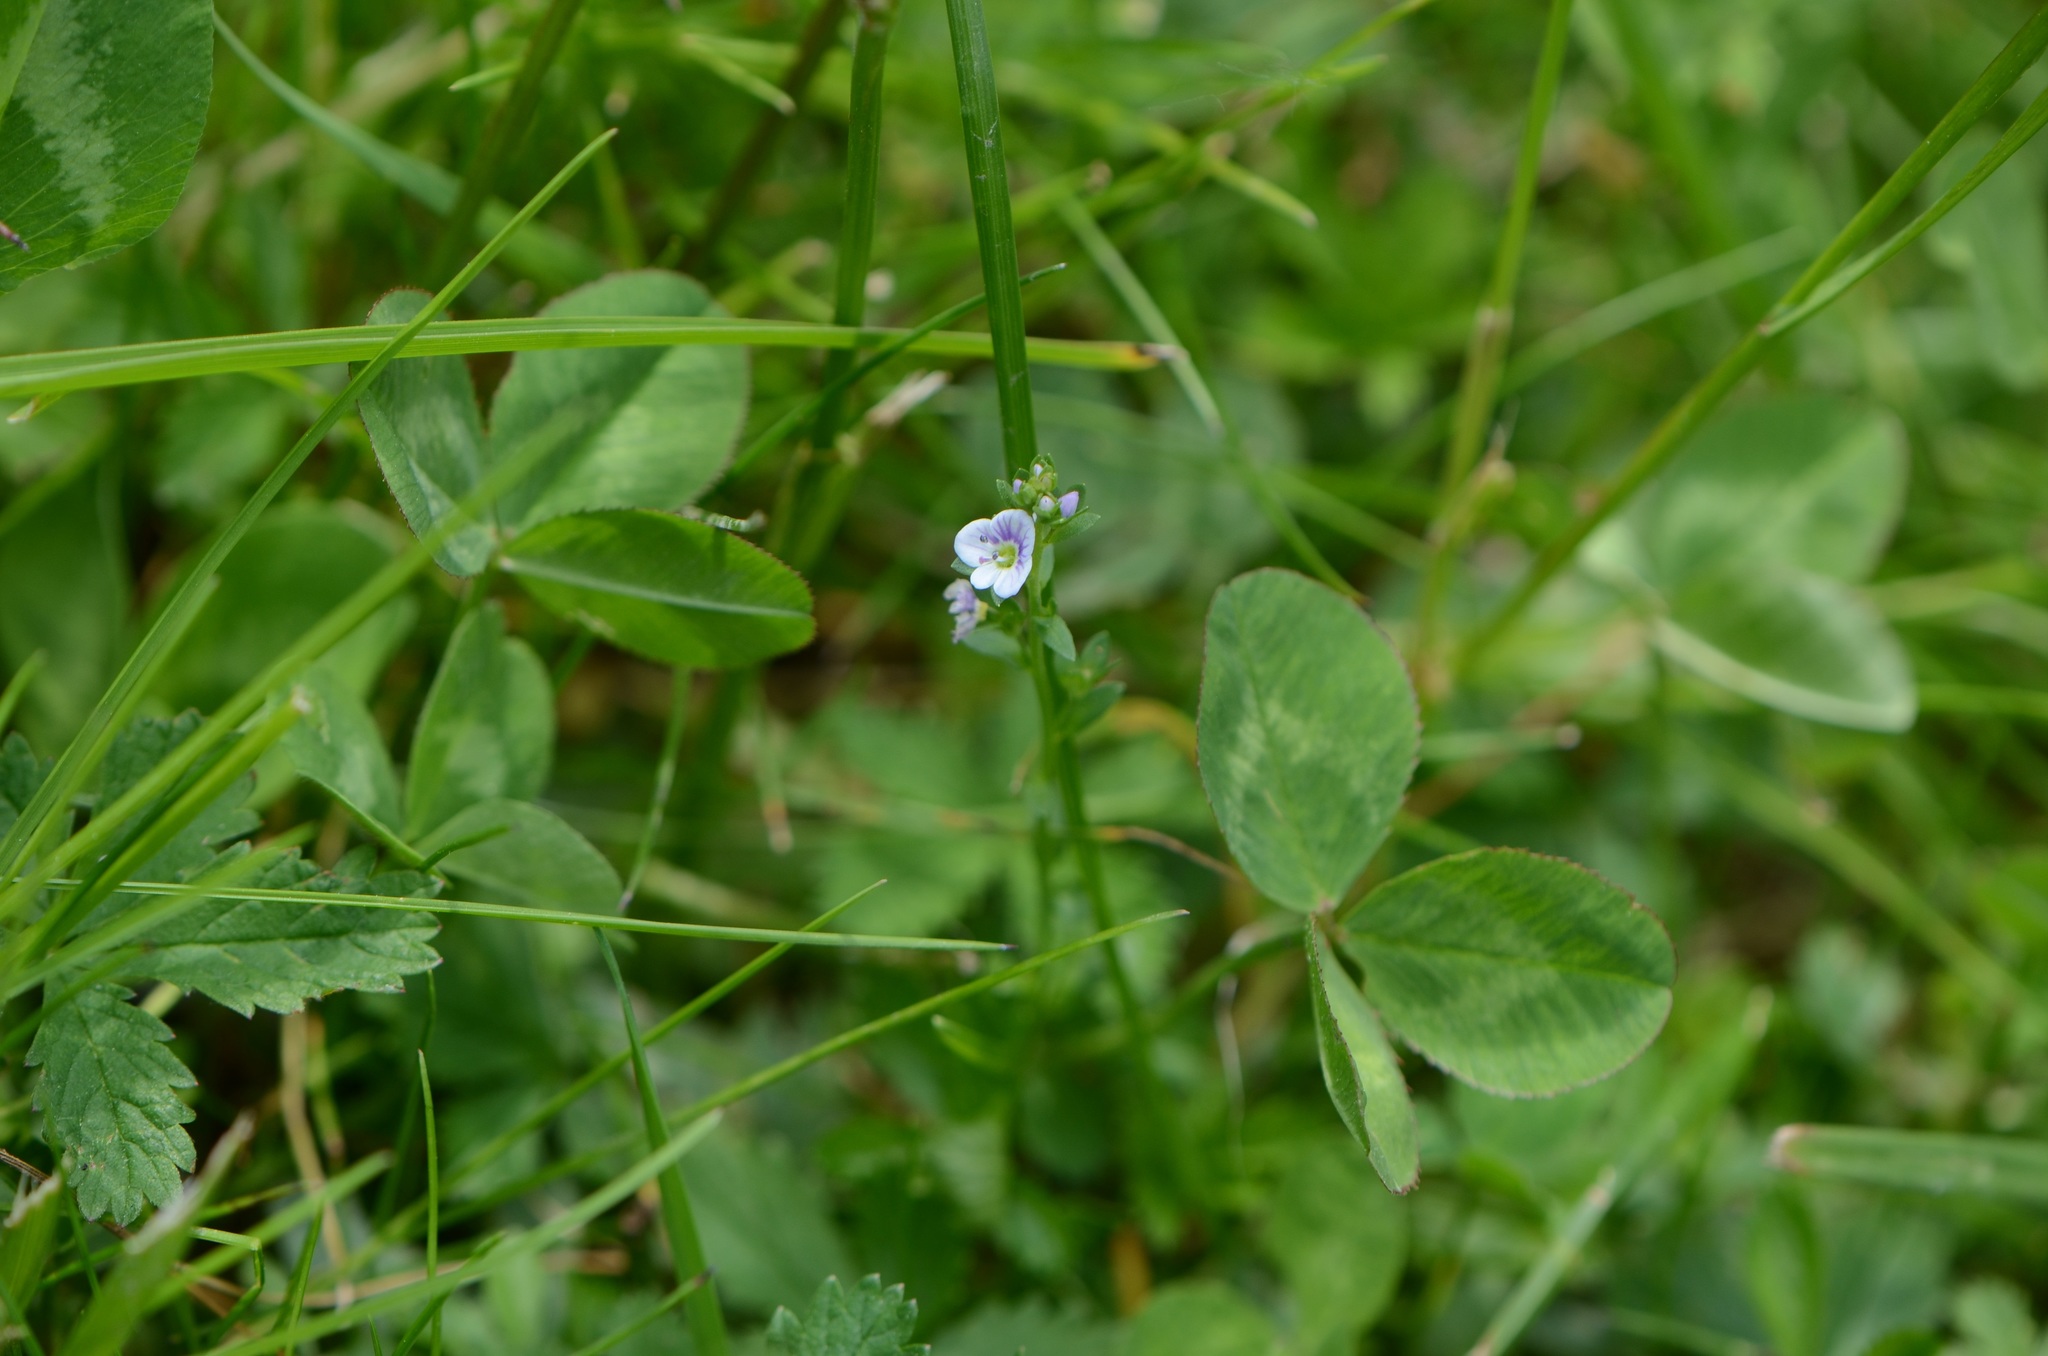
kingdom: Plantae
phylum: Tracheophyta
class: Magnoliopsida
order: Lamiales
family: Plantaginaceae
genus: Veronica
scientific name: Veronica serpyllifolia
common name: Thyme-leaved speedwell
